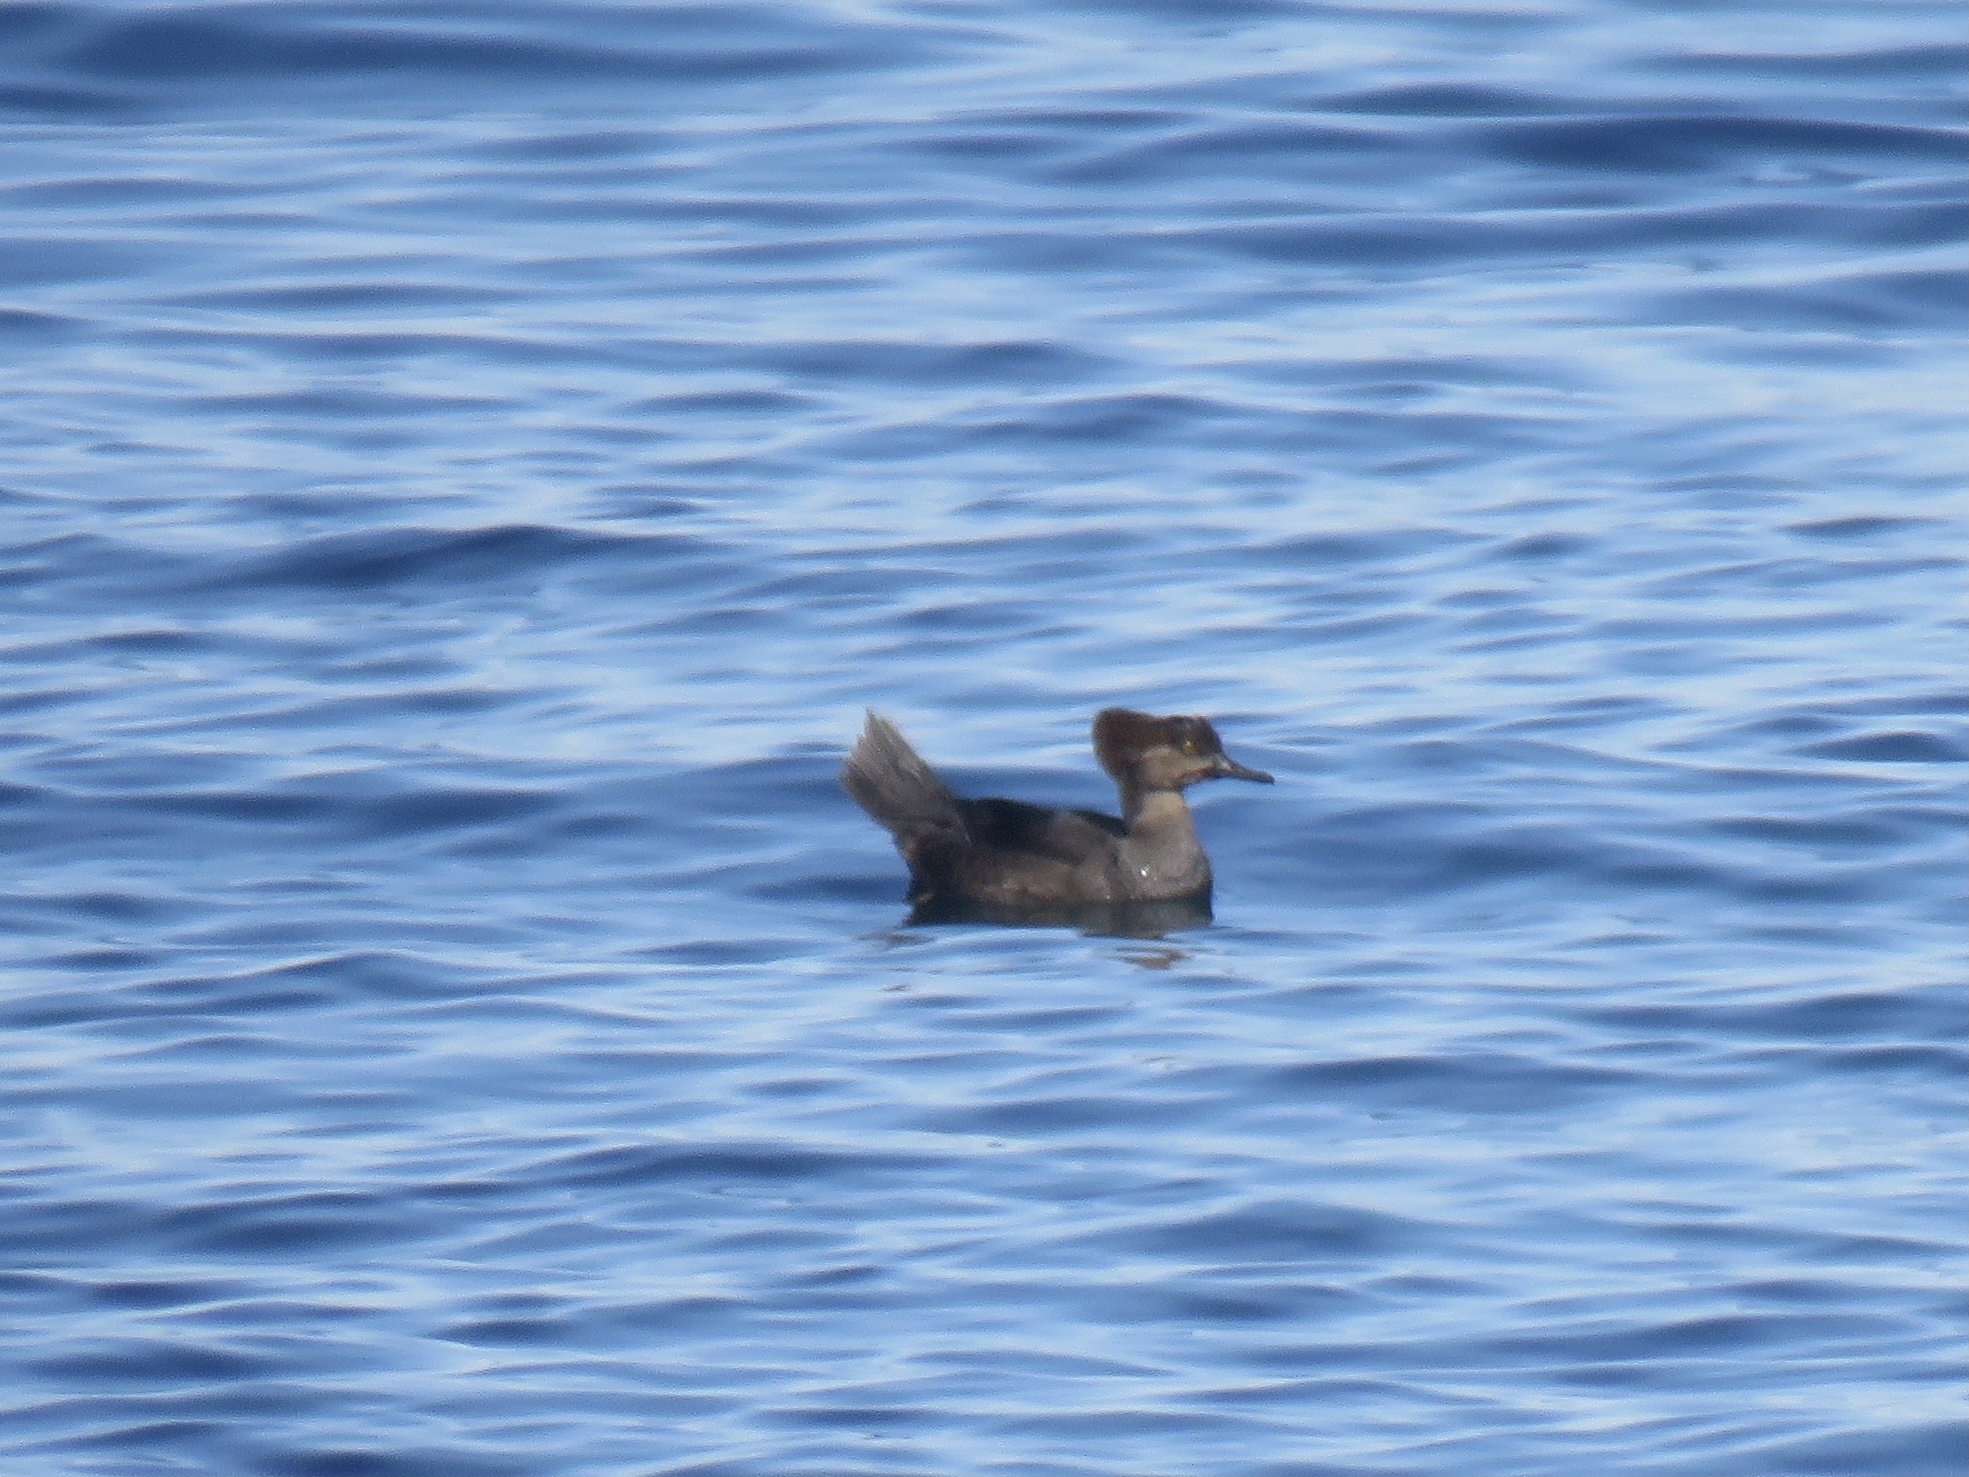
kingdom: Animalia
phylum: Chordata
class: Aves
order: Anseriformes
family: Anatidae
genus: Lophodytes
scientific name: Lophodytes cucullatus
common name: Hooded merganser
